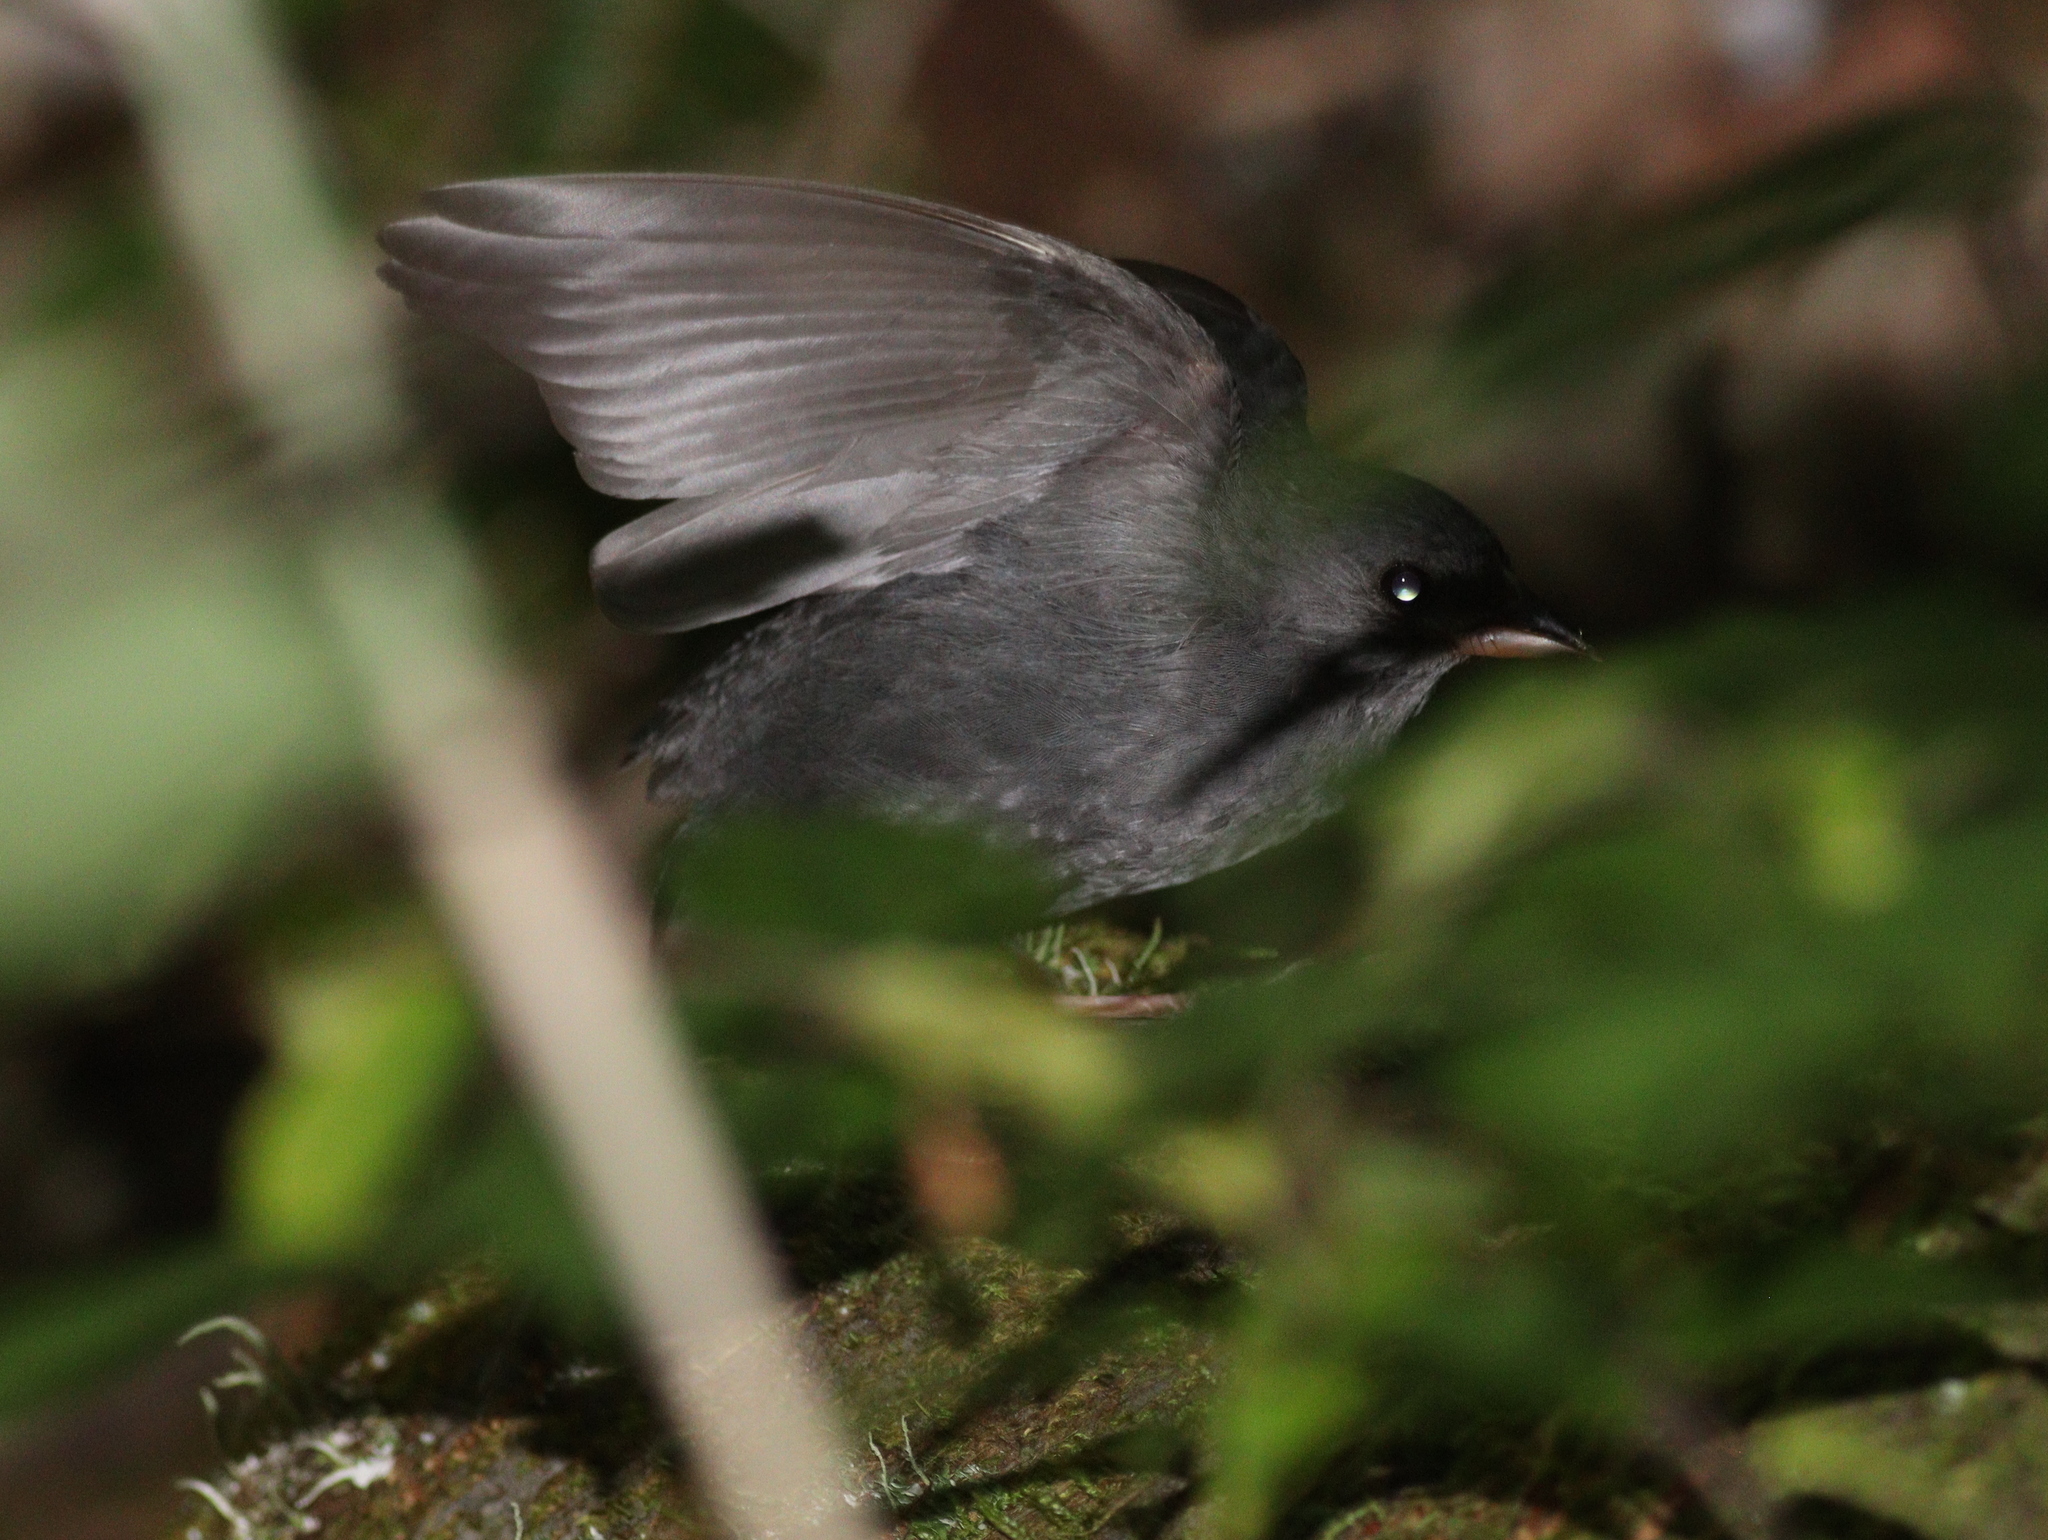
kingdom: Animalia
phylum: Chordata
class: Aves
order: Passeriformes
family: Emberizidae
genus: Emberiza
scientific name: Emberiza variabilis
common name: Gray bunting
